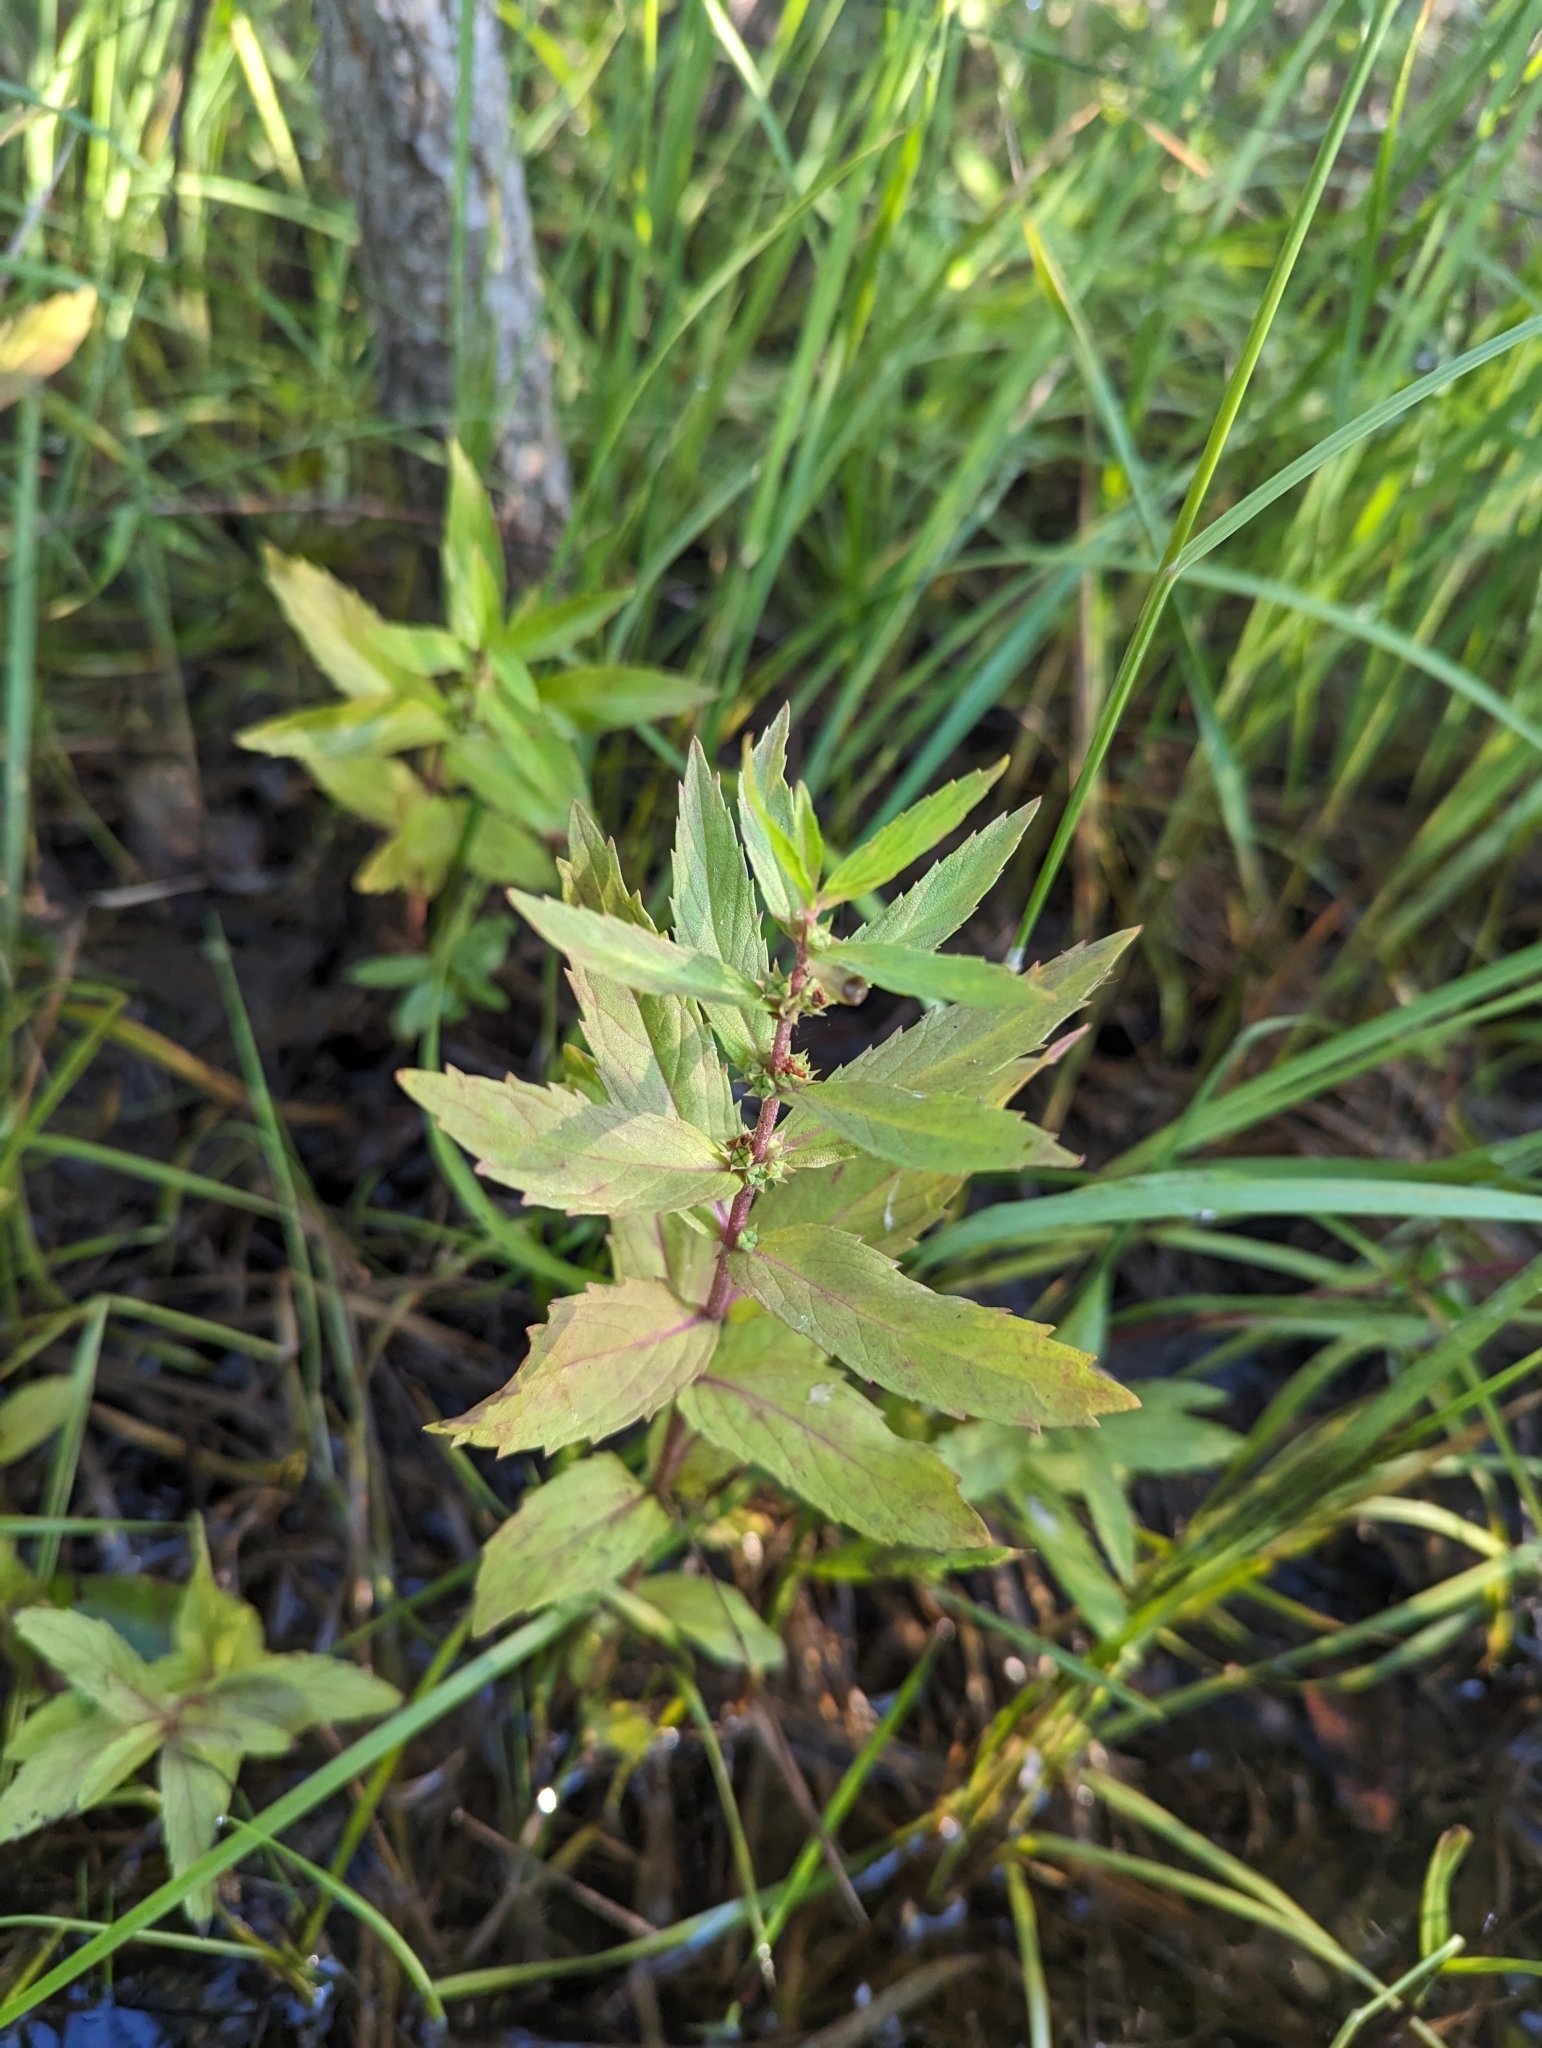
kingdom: Plantae
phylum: Tracheophyta
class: Magnoliopsida
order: Lamiales
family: Lamiaceae
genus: Lycopus
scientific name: Lycopus asper
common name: Rough water-horehound
